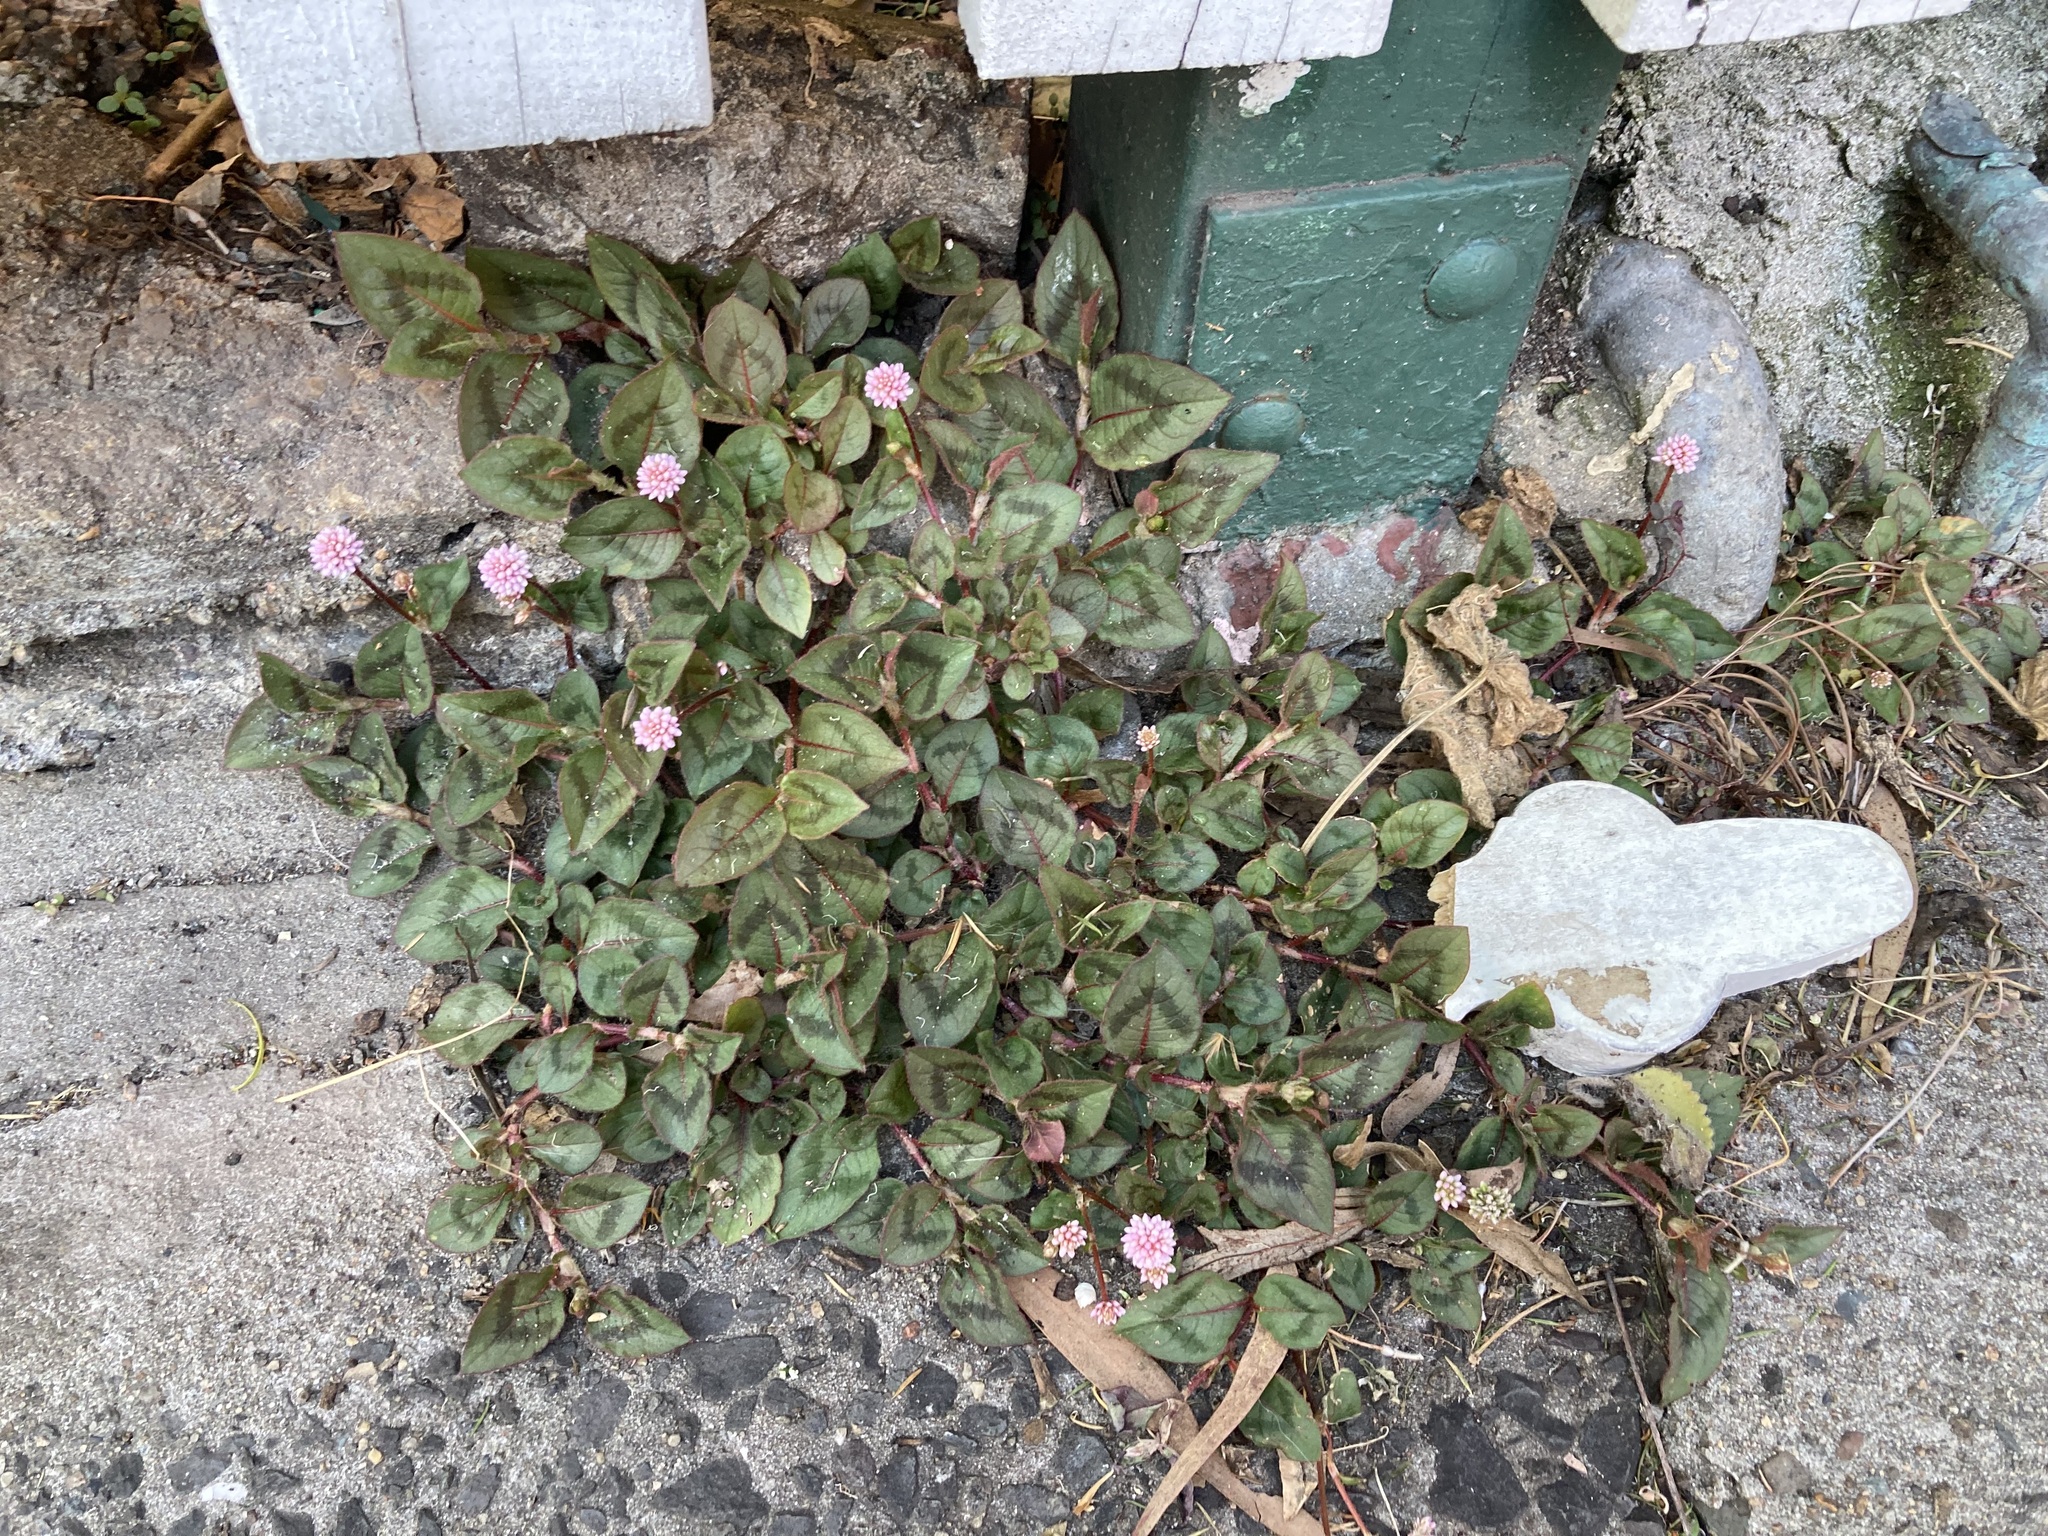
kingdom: Plantae
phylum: Tracheophyta
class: Magnoliopsida
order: Caryophyllales
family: Polygonaceae
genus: Persicaria
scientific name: Persicaria capitata
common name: Pinkhead smartweed
